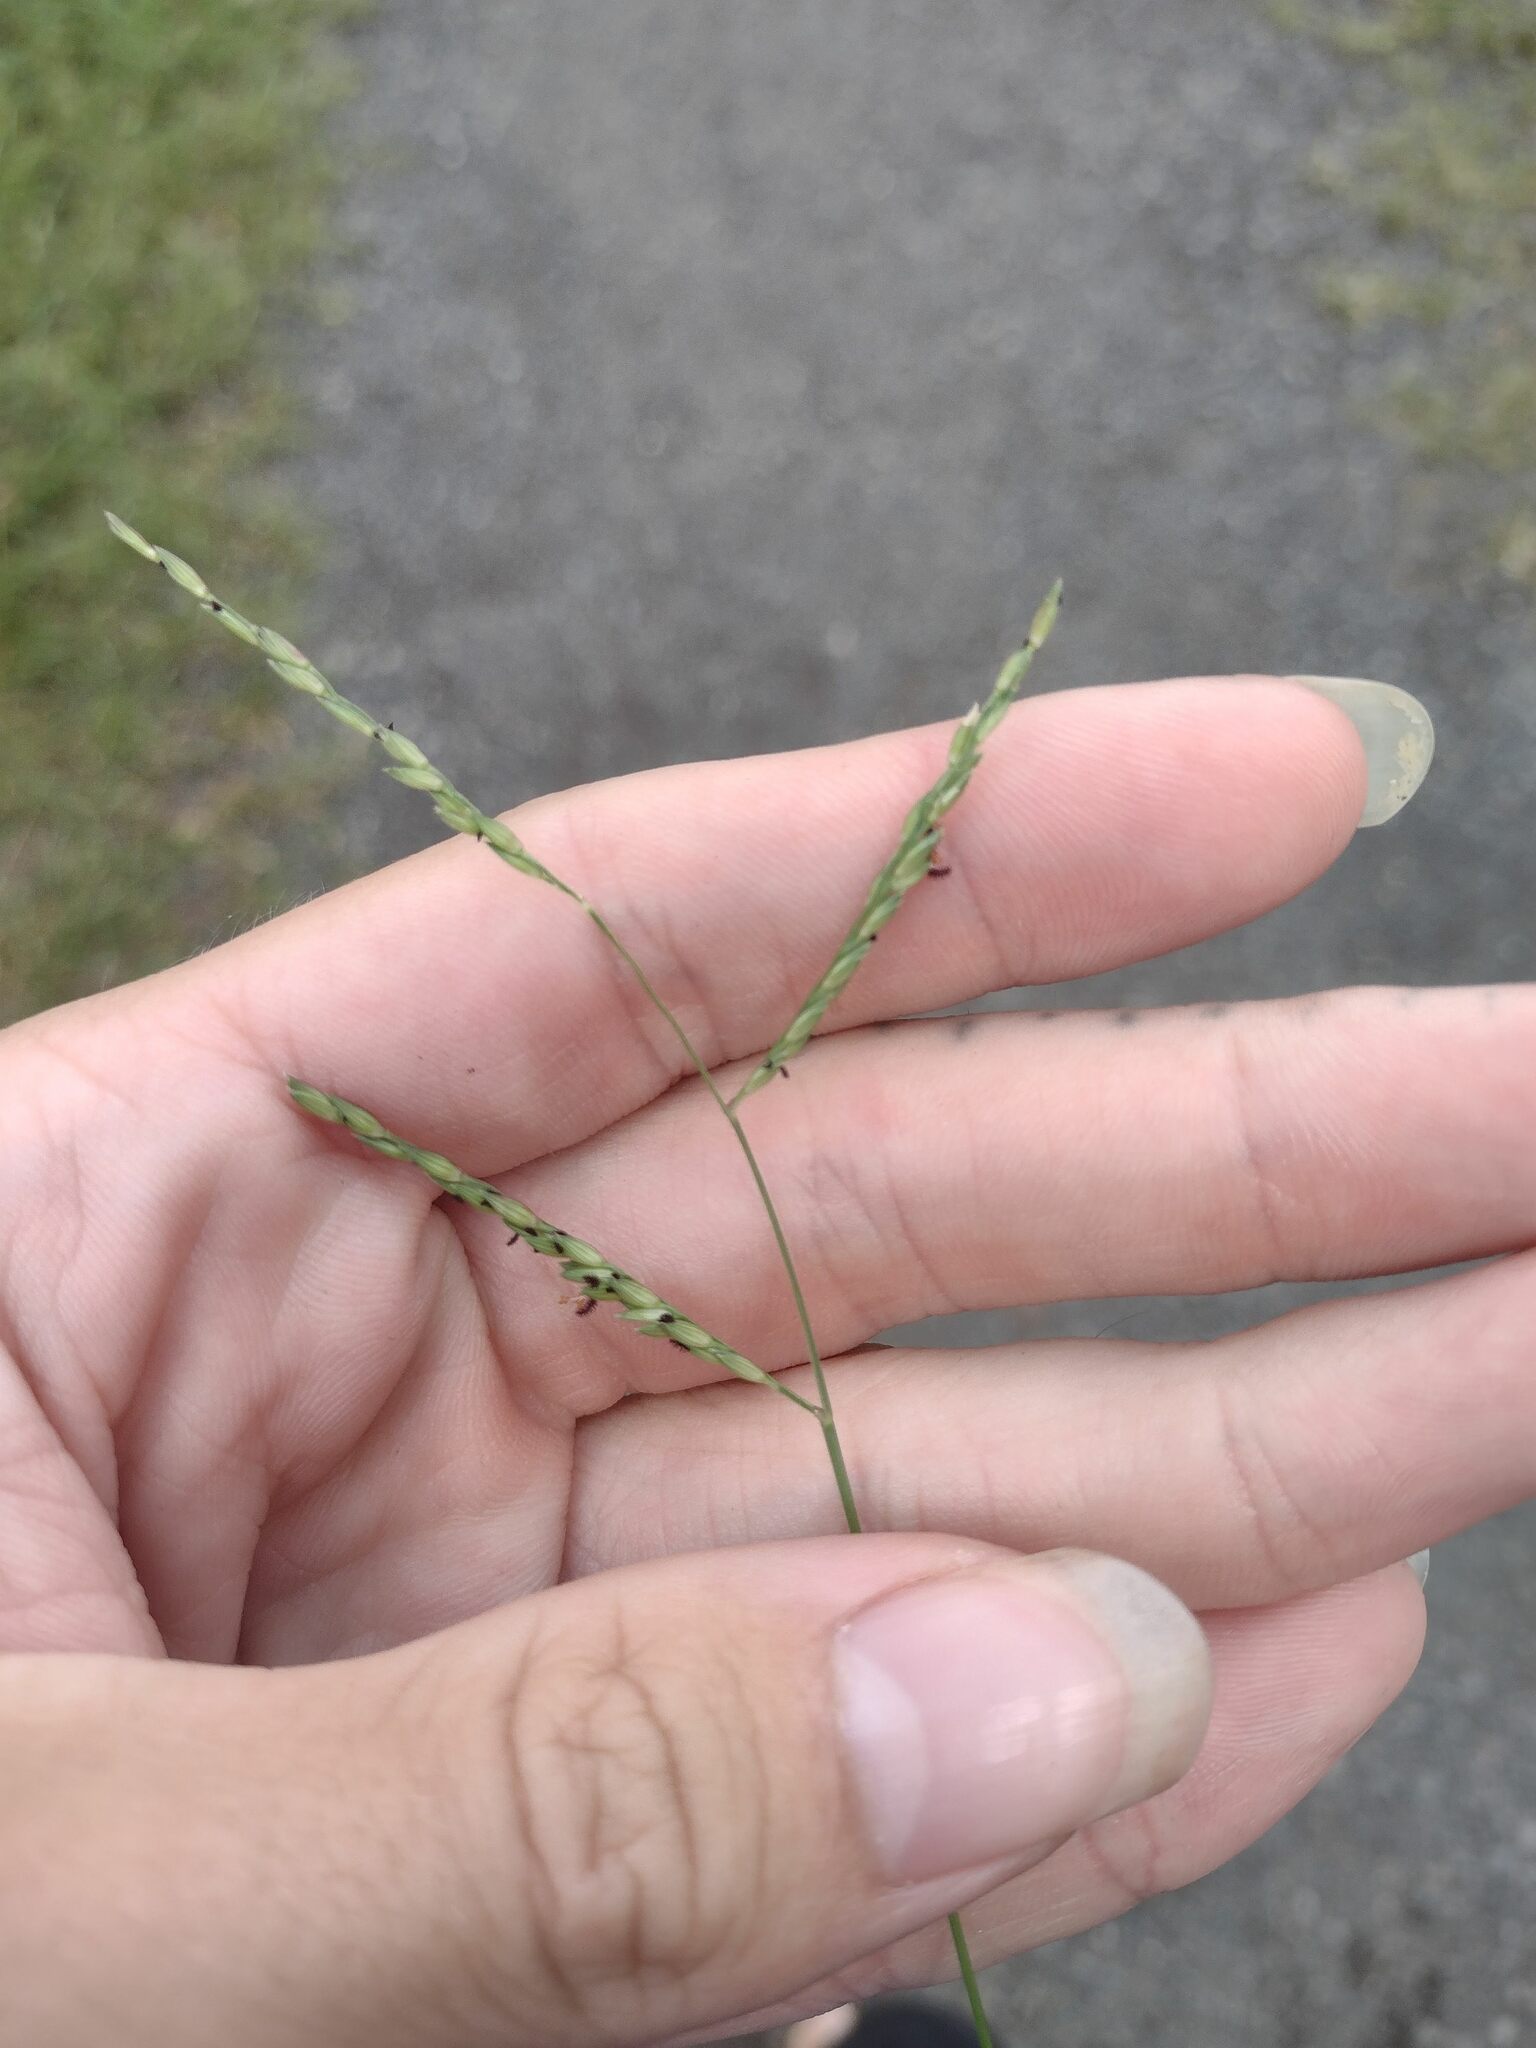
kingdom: Plantae
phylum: Tracheophyta
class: Liliopsida
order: Poales
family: Poaceae
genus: Urochloa
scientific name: Urochloa glumaris
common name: Thurston grass
